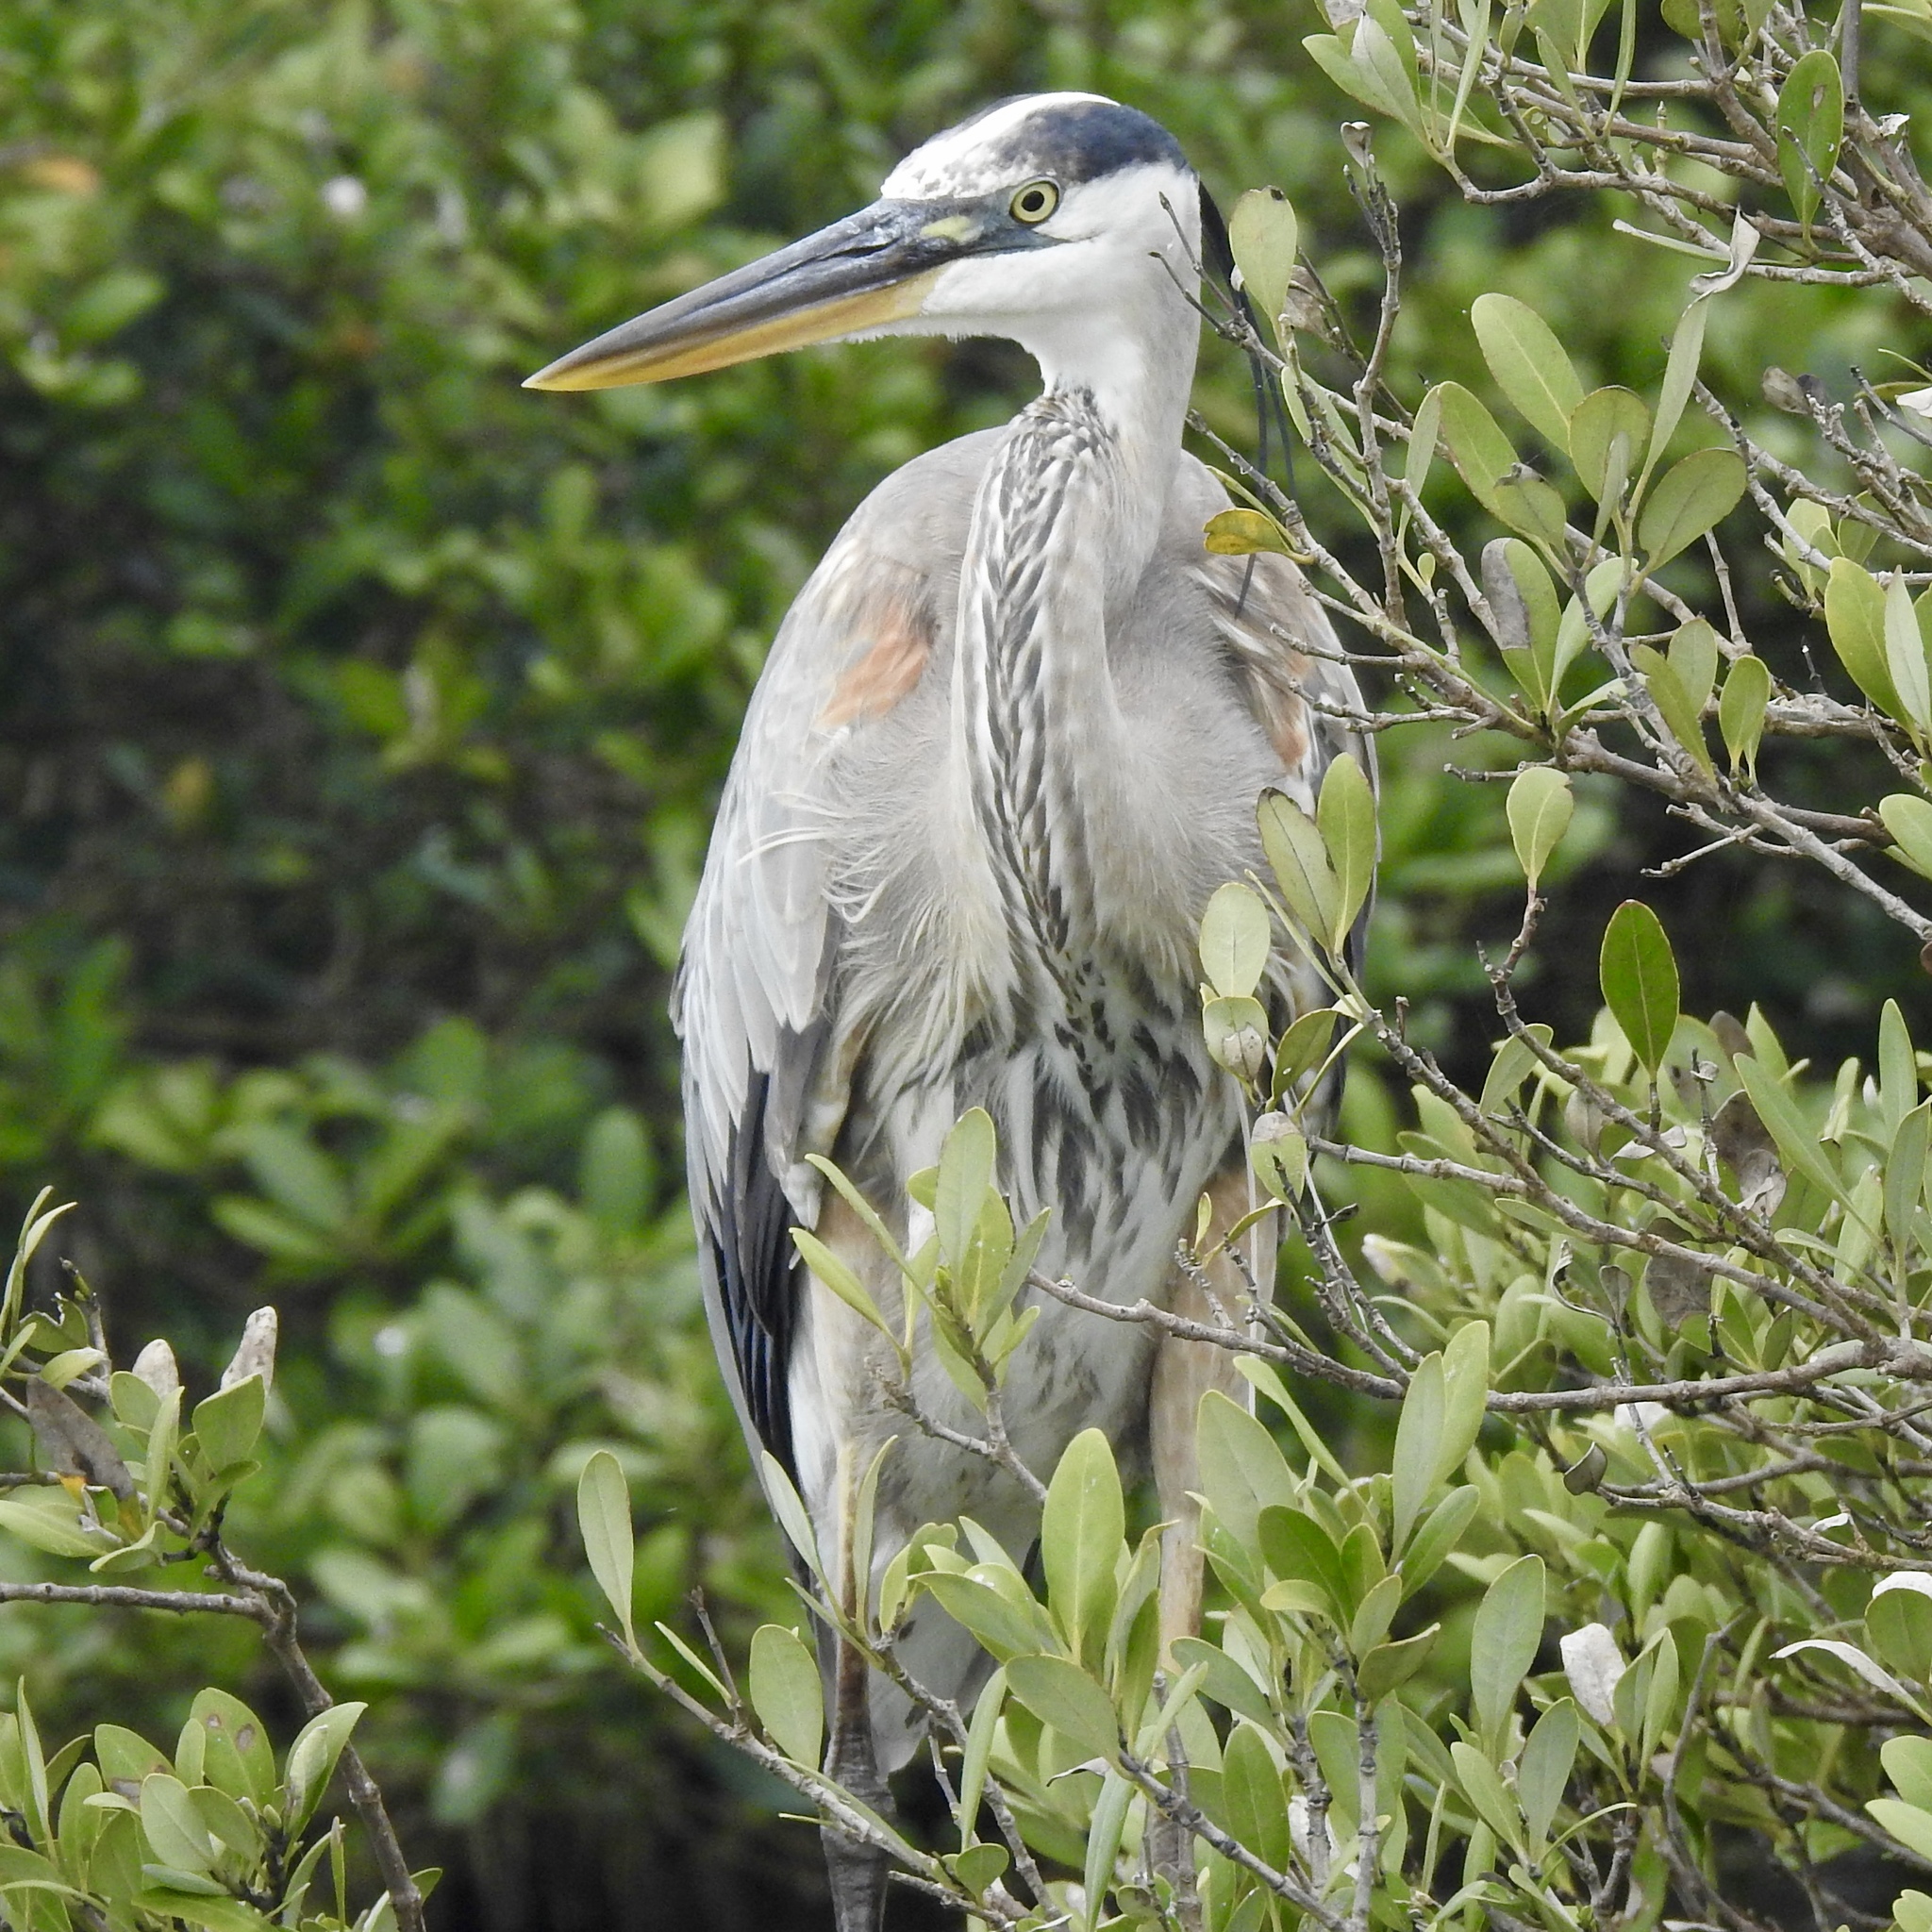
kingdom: Animalia
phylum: Chordata
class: Aves
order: Pelecaniformes
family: Ardeidae
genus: Ardea
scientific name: Ardea herodias
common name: Great blue heron
